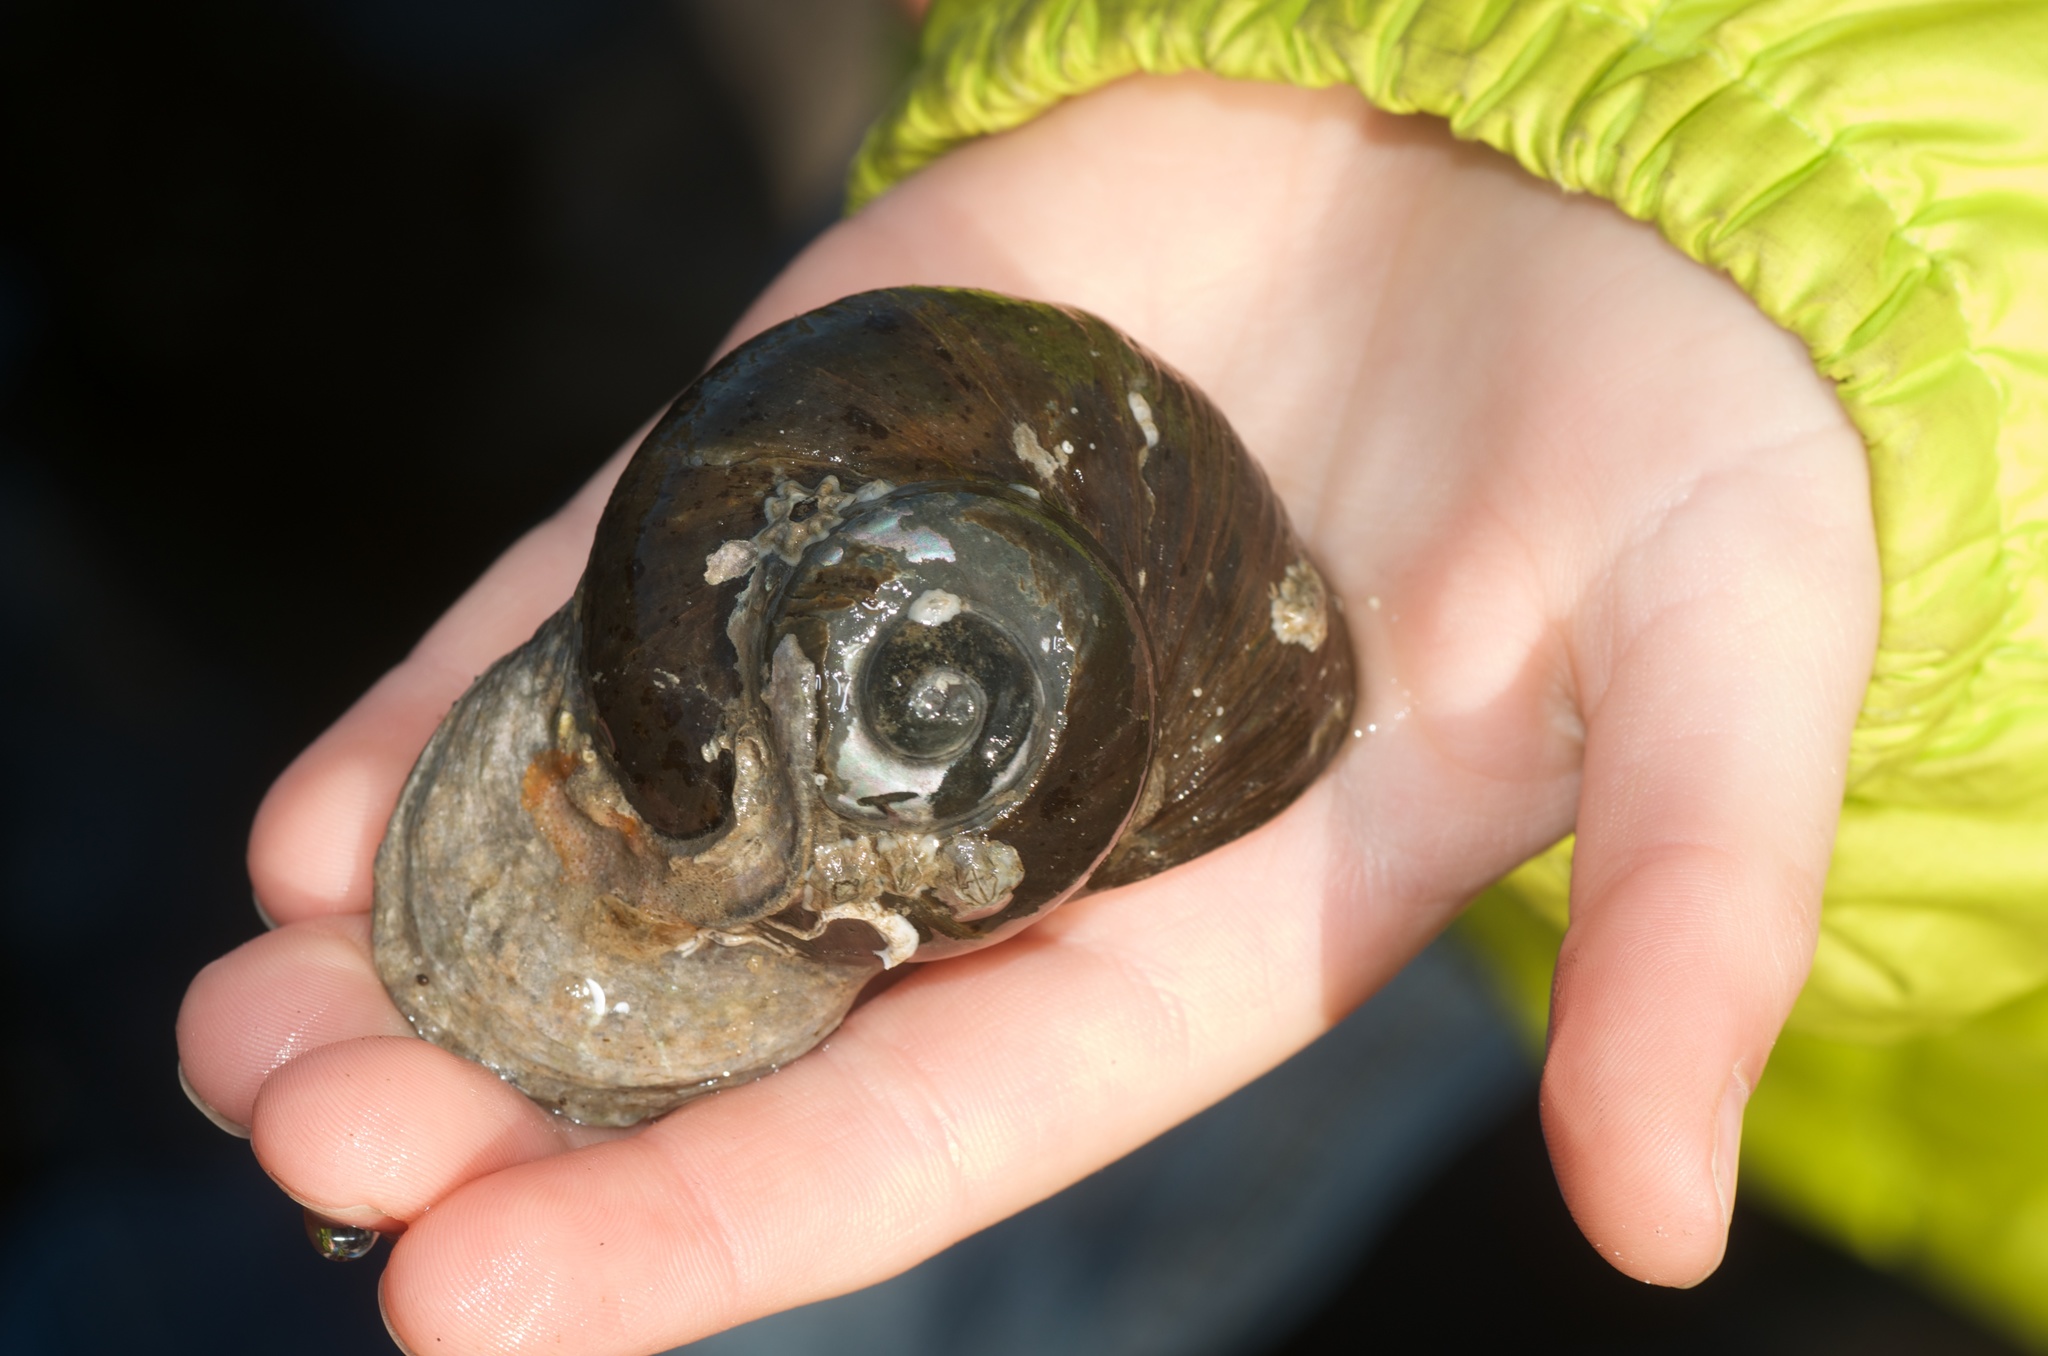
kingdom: Animalia
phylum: Mollusca
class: Gastropoda
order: Trochida
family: Turbinidae
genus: Lunella
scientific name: Lunella smaragda
